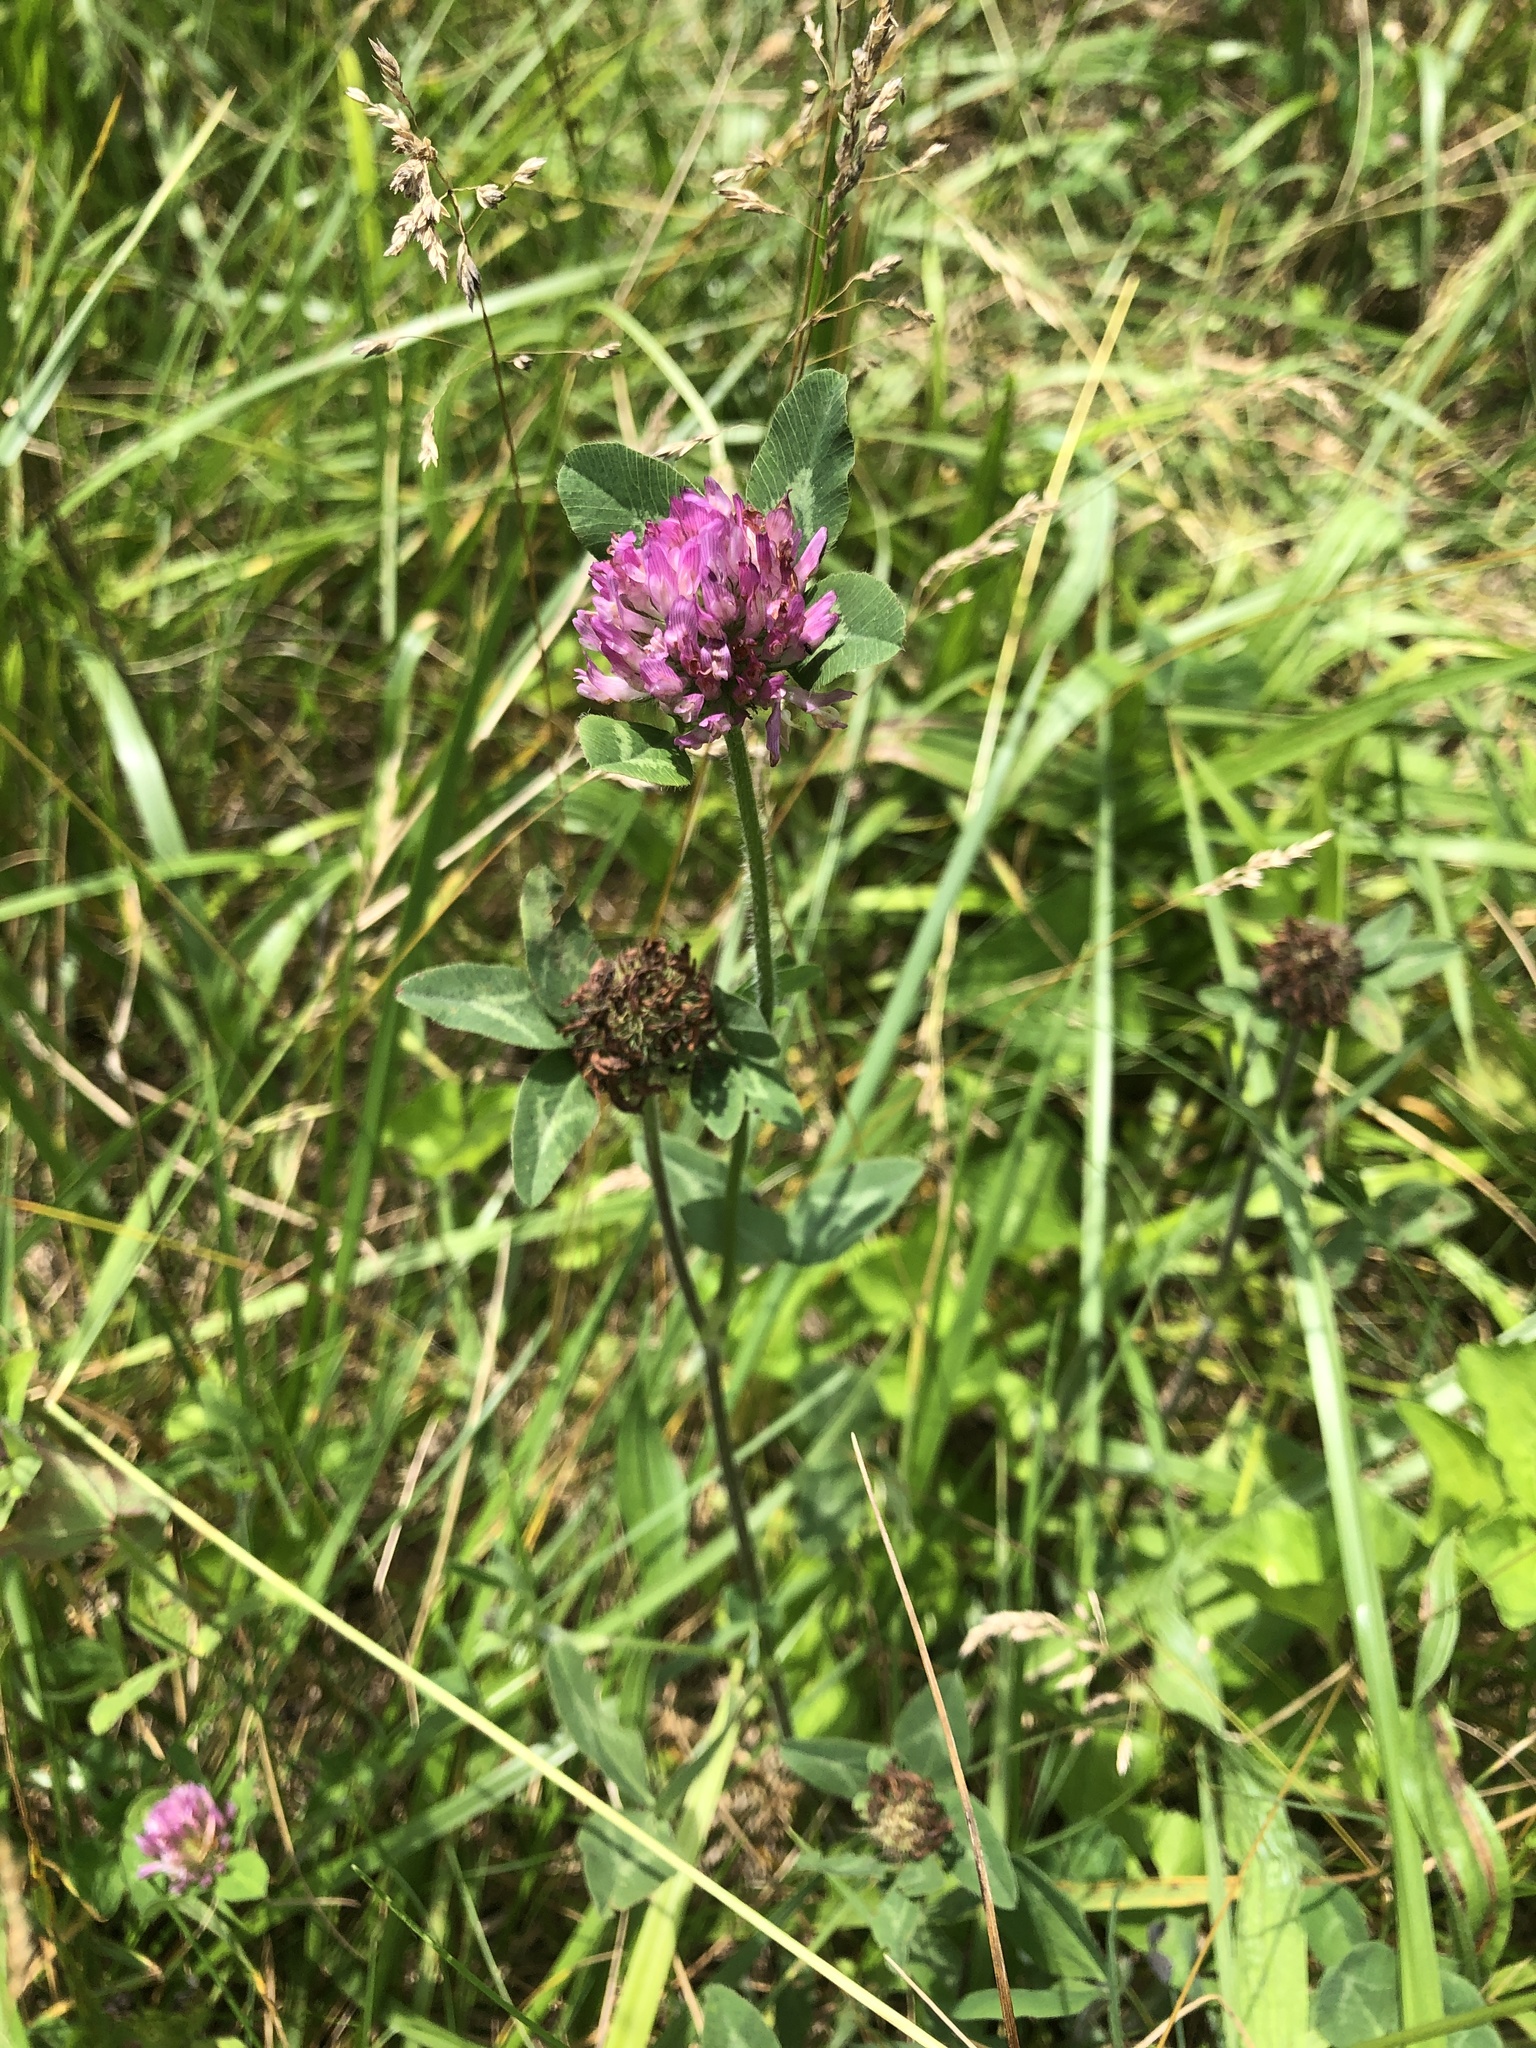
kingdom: Plantae
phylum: Tracheophyta
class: Magnoliopsida
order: Fabales
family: Fabaceae
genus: Trifolium
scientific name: Trifolium pratense
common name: Red clover
